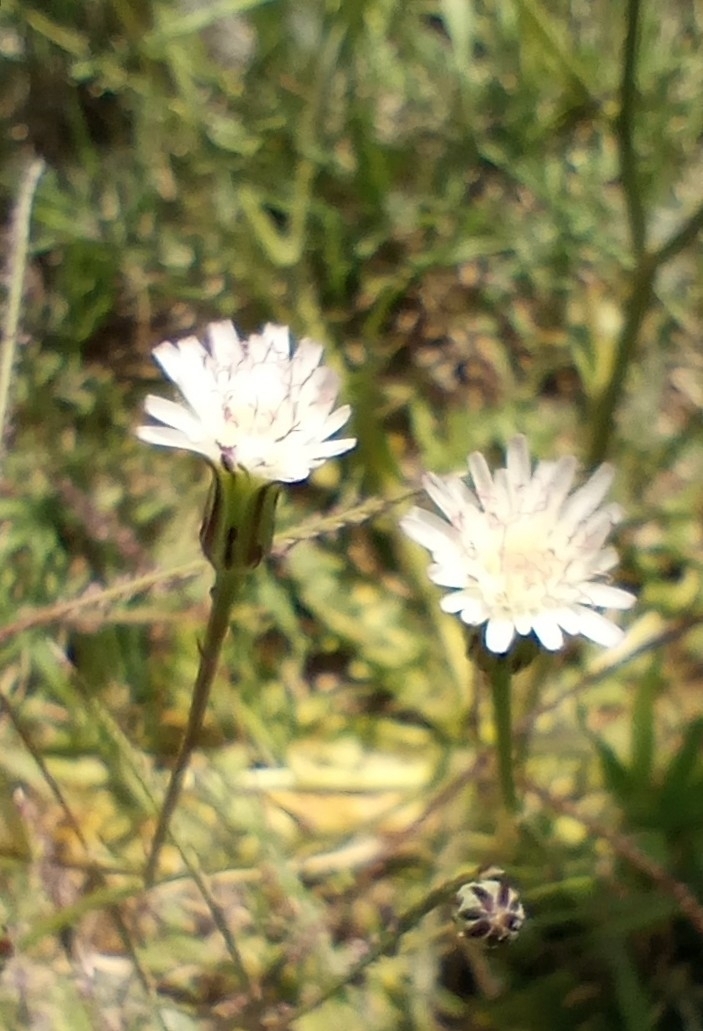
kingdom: Plantae
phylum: Tracheophyta
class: Magnoliopsida
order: Asterales
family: Asteraceae
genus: Hypochaeris
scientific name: Hypochaeris albiflora
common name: White flatweed
